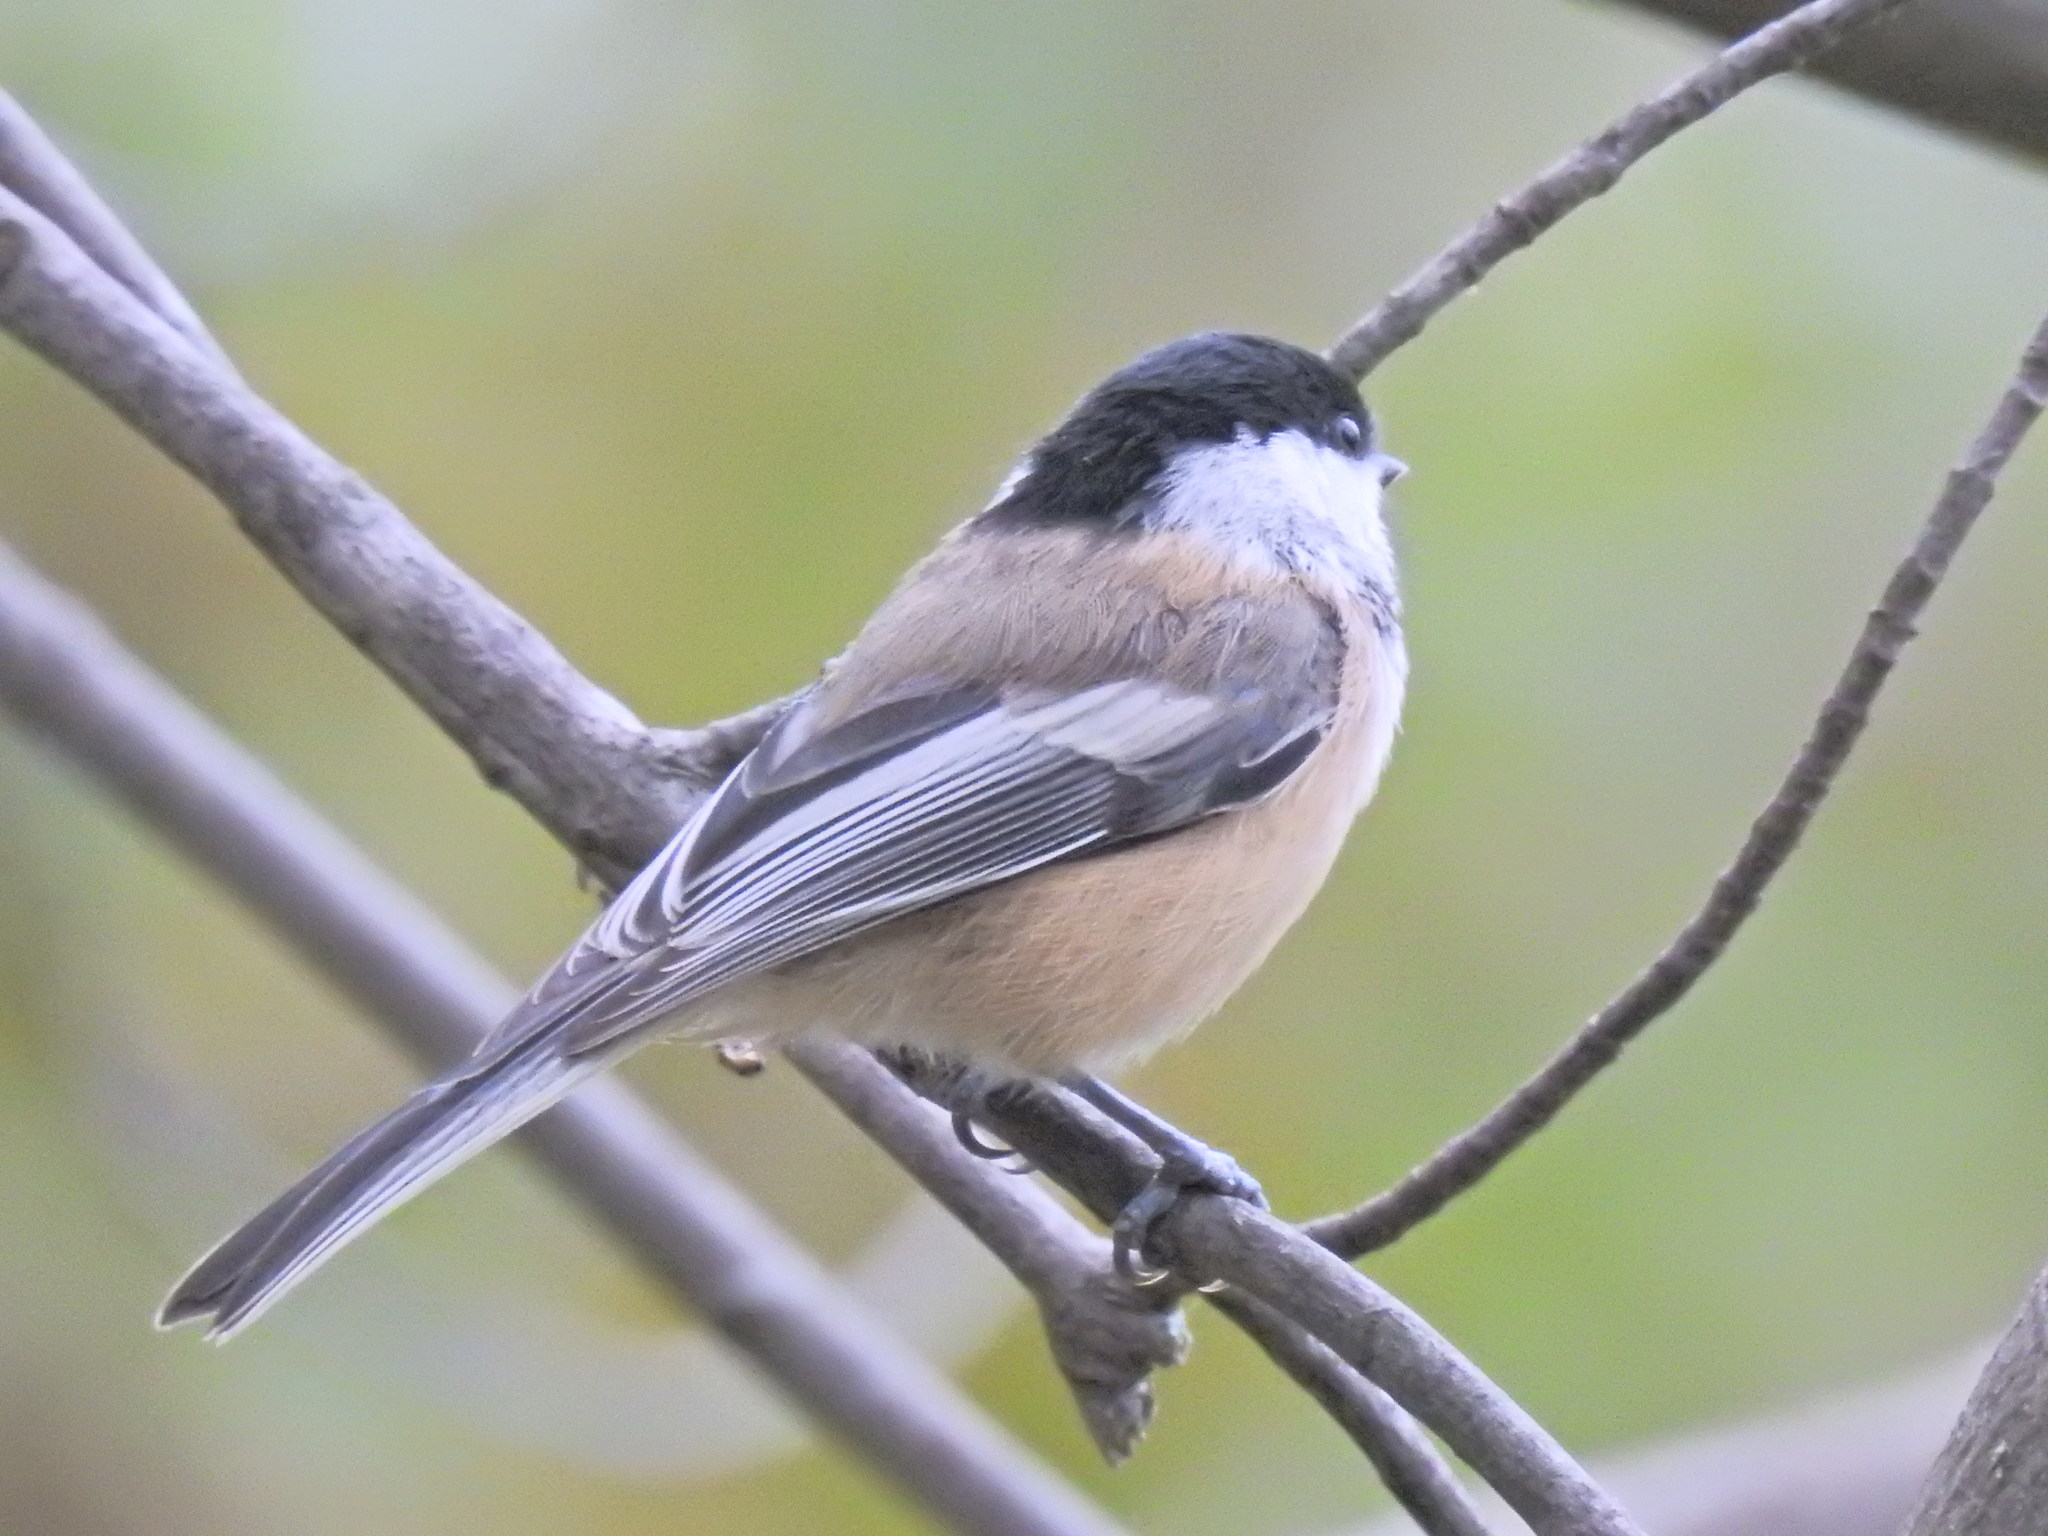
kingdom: Animalia
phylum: Chordata
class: Aves
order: Passeriformes
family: Paridae
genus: Poecile
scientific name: Poecile atricapillus
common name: Black-capped chickadee
